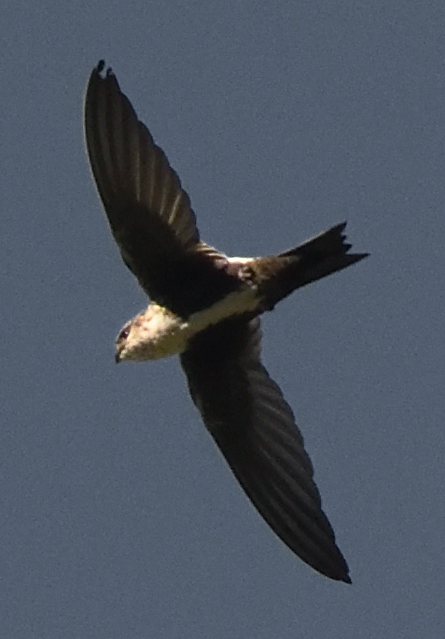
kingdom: Animalia
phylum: Chordata
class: Aves
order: Apodiformes
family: Apodidae
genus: Aeronautes
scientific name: Aeronautes saxatalis
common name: White-throated swift
